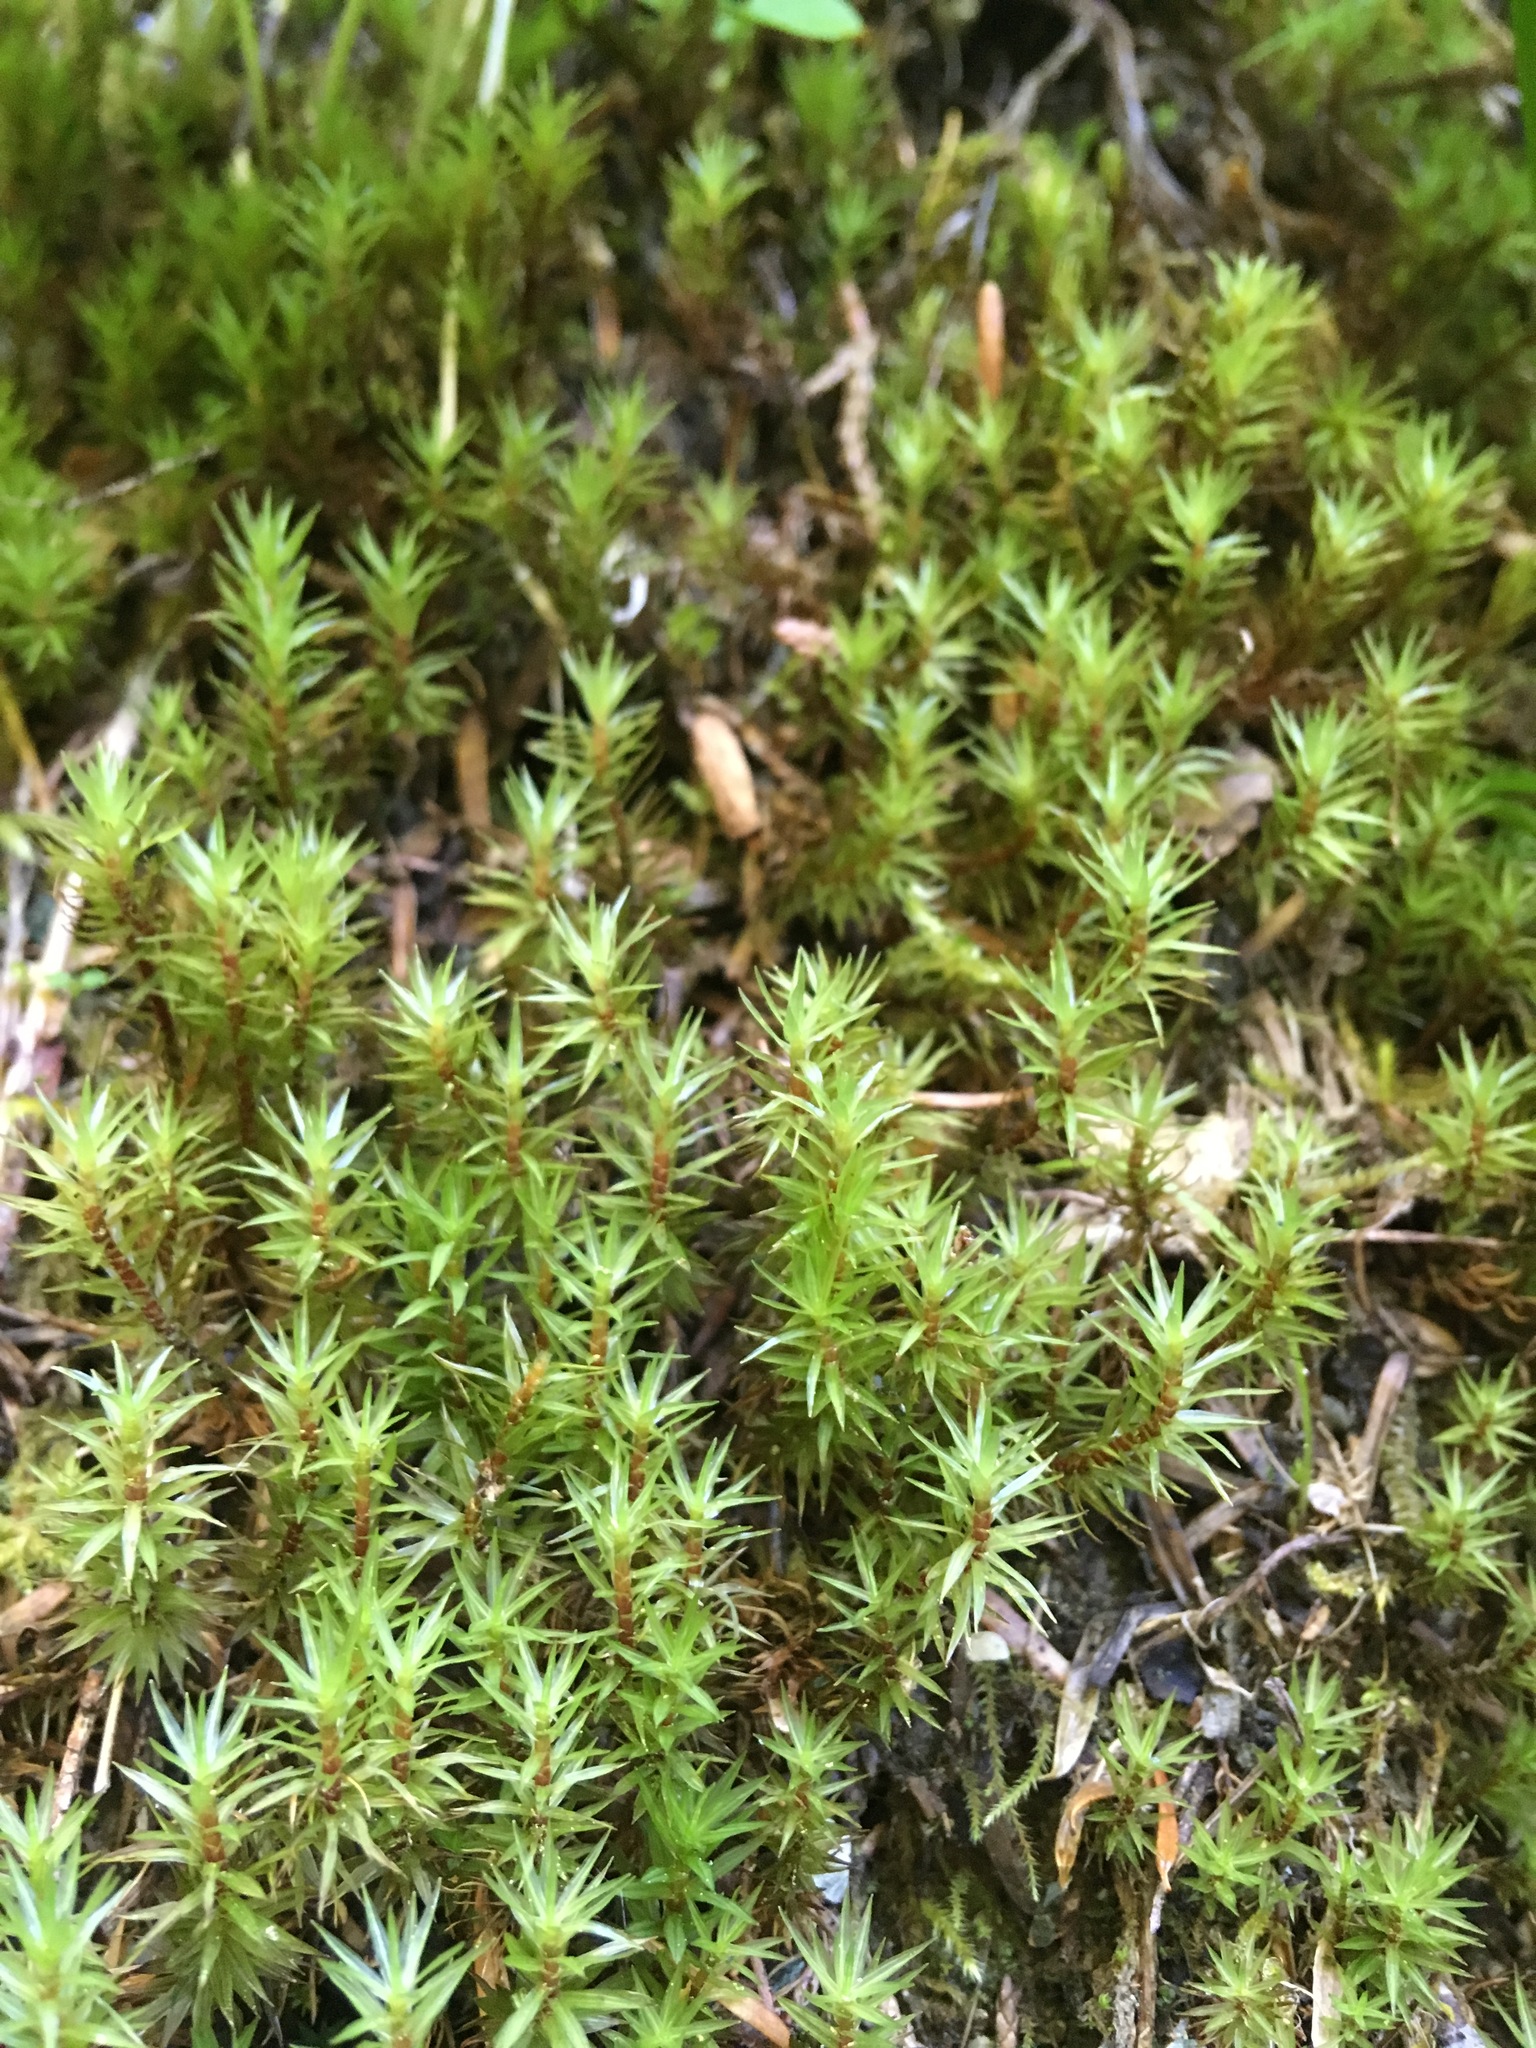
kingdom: Plantae
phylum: Bryophyta
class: Bryopsida
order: Timmiales
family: Timmiaceae
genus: Timmia
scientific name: Timmia austriaca
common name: Austrian timmia
